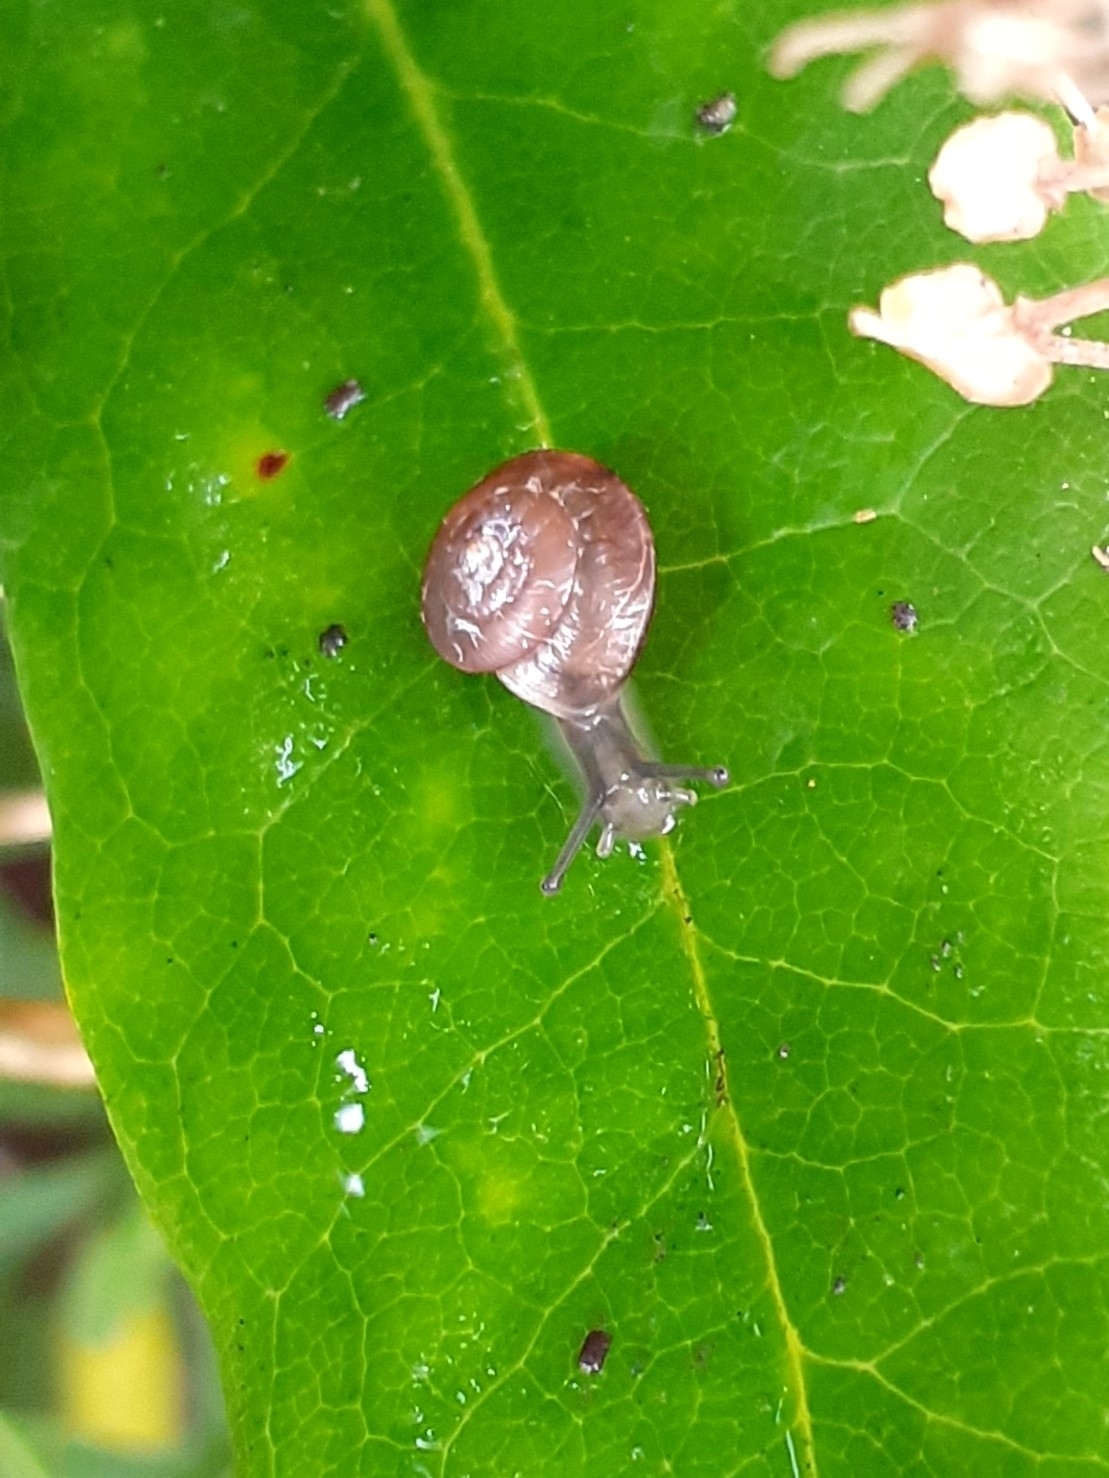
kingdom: Animalia
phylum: Mollusca
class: Gastropoda
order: Stylommatophora
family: Hygromiidae
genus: Hygromia
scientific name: Hygromia cinctella
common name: Girdled snail
